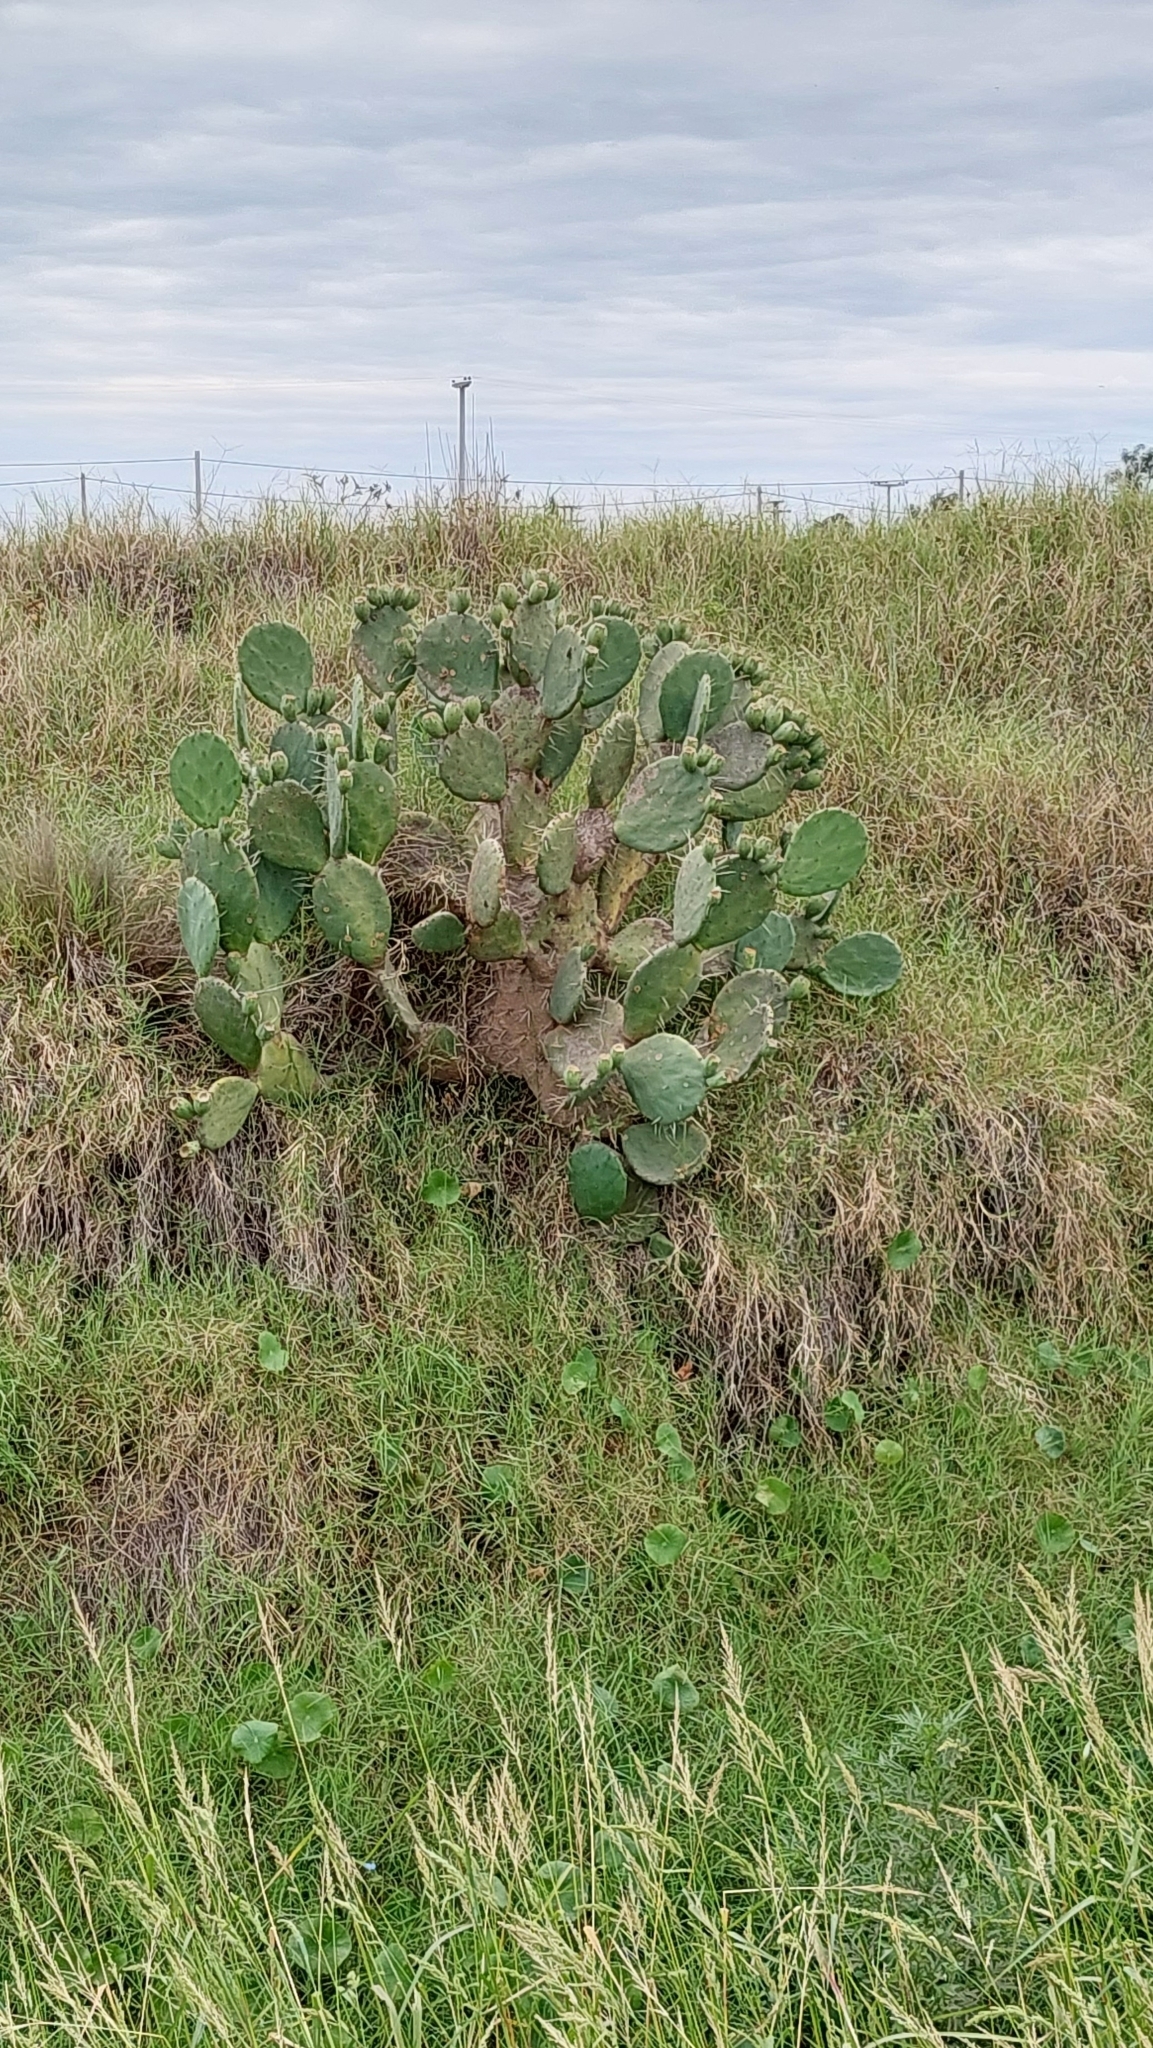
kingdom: Plantae
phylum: Tracheophyta
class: Magnoliopsida
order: Caryophyllales
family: Cactaceae
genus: Opuntia
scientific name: Opuntia megapotamica
